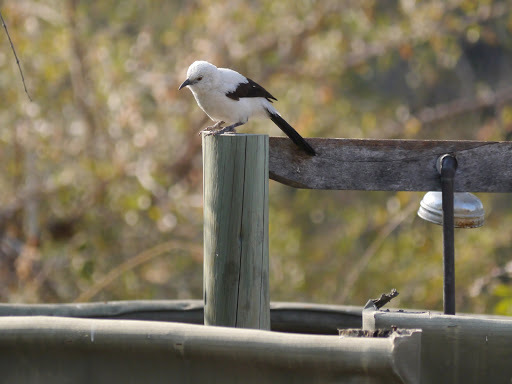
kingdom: Animalia
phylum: Chordata
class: Aves
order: Passeriformes
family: Leiothrichidae
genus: Turdoides
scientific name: Turdoides bicolor
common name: Southern pied babbler
